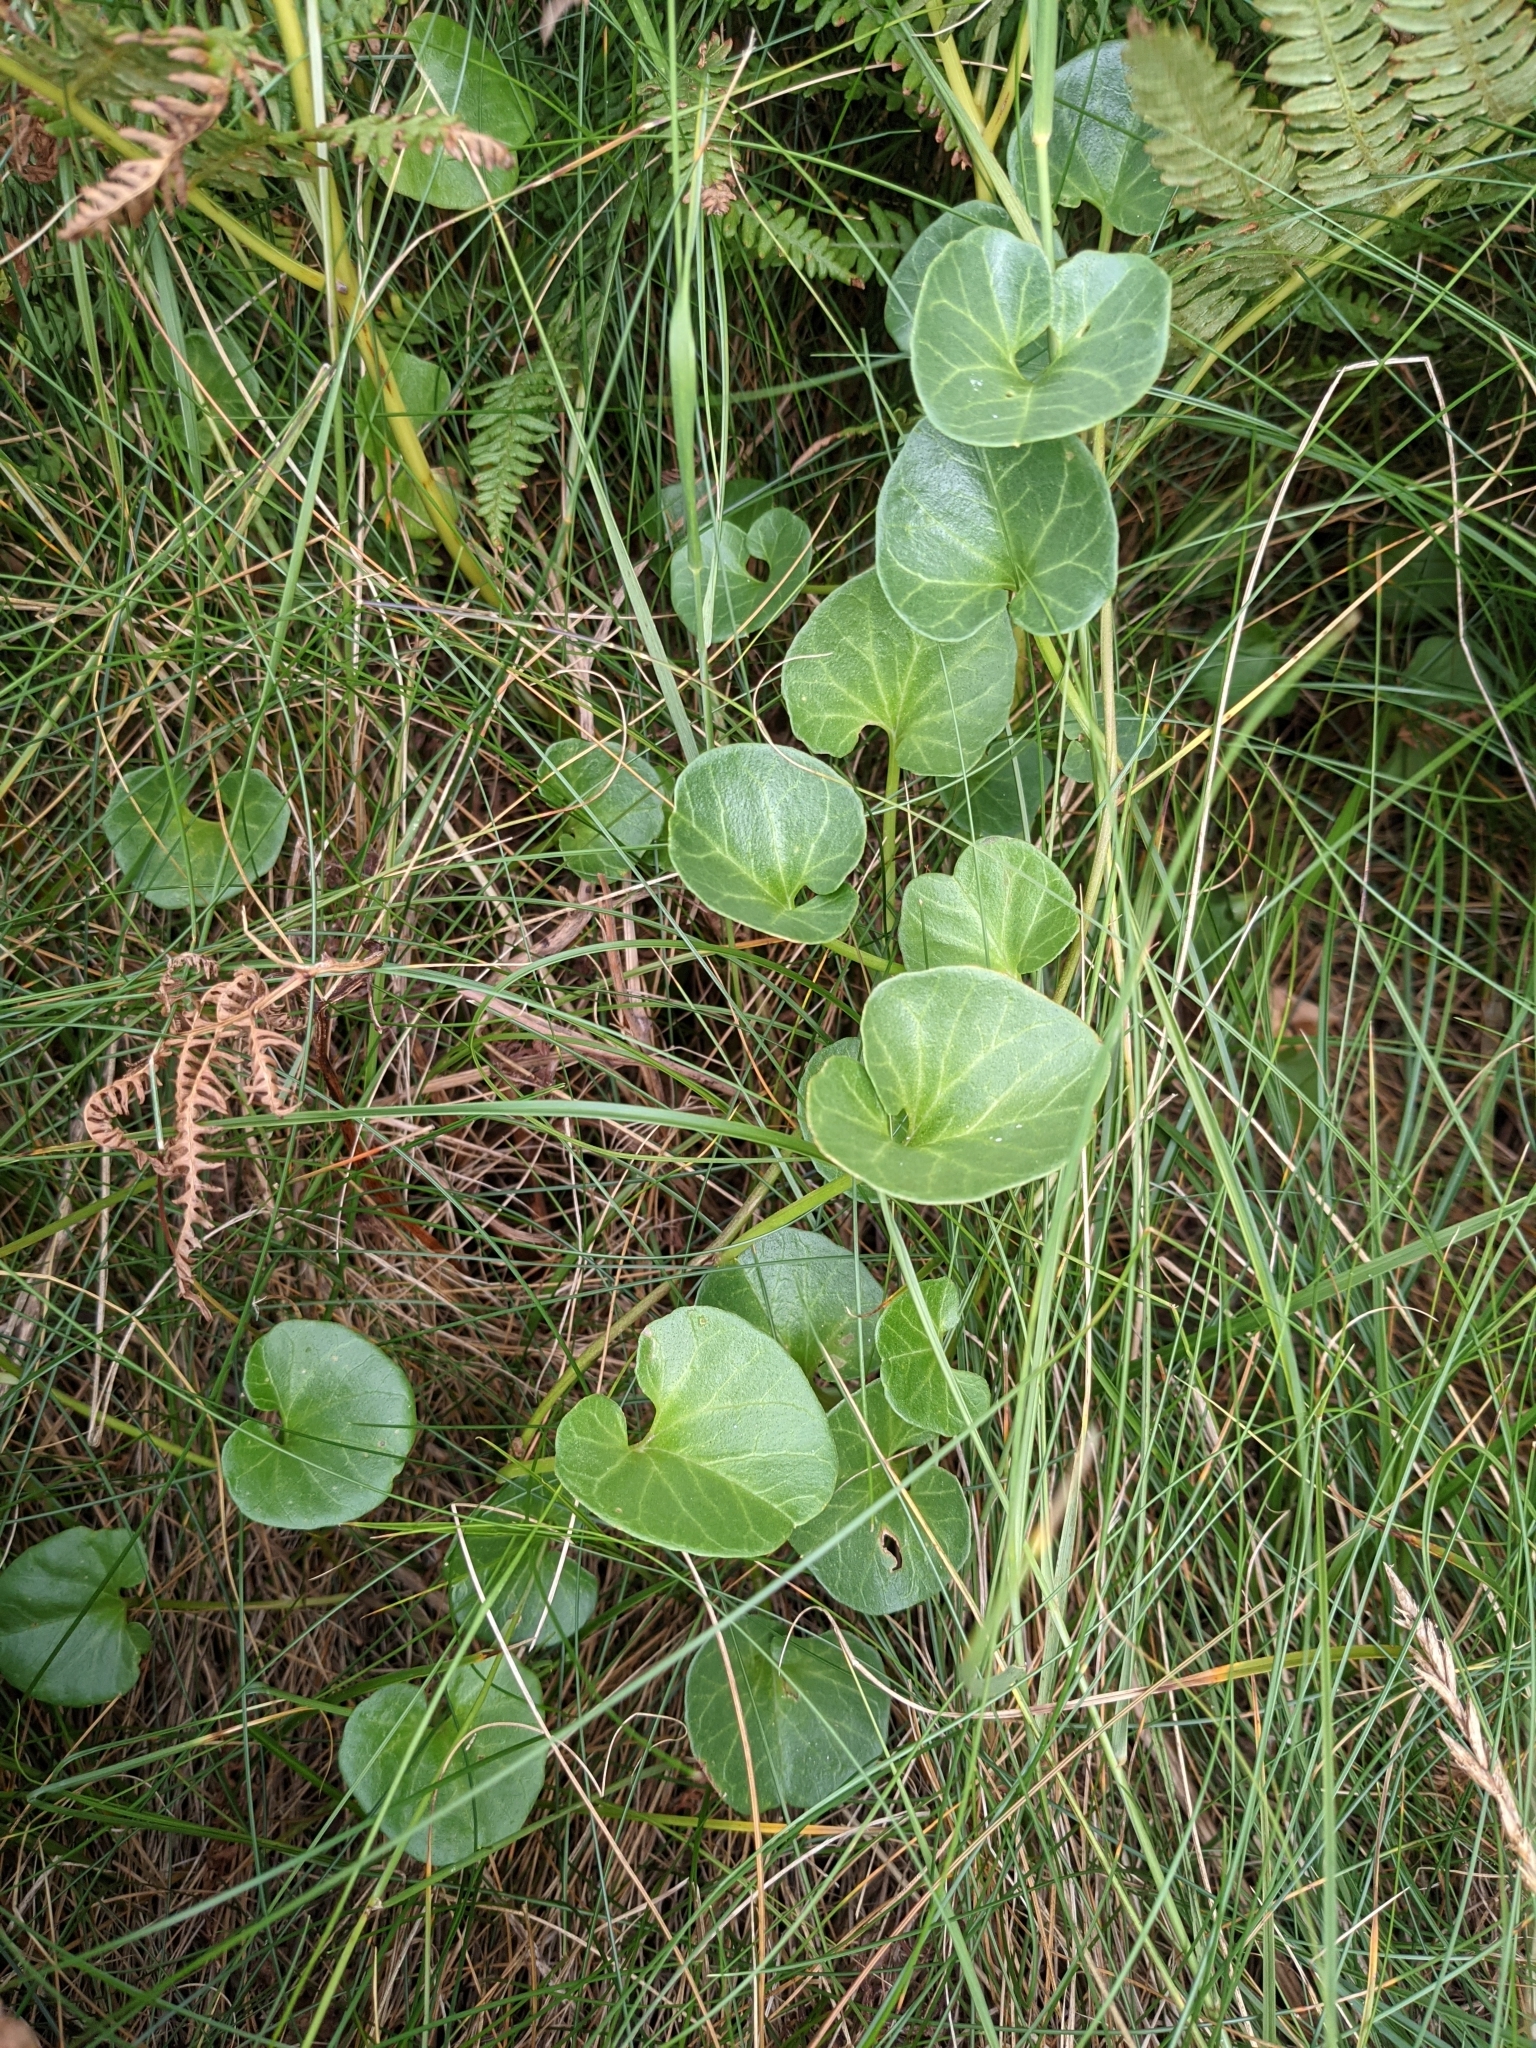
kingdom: Plantae
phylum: Tracheophyta
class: Magnoliopsida
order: Solanales
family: Convolvulaceae
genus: Calystegia
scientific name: Calystegia soldanella
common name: Sea bindweed
